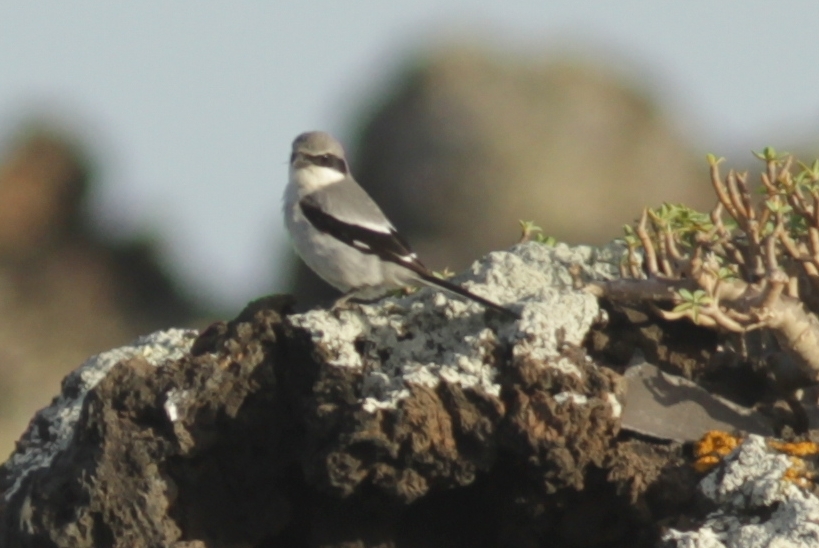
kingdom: Animalia
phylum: Chordata
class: Aves
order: Passeriformes
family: Laniidae
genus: Lanius
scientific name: Lanius excubitor
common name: Great grey shrike
